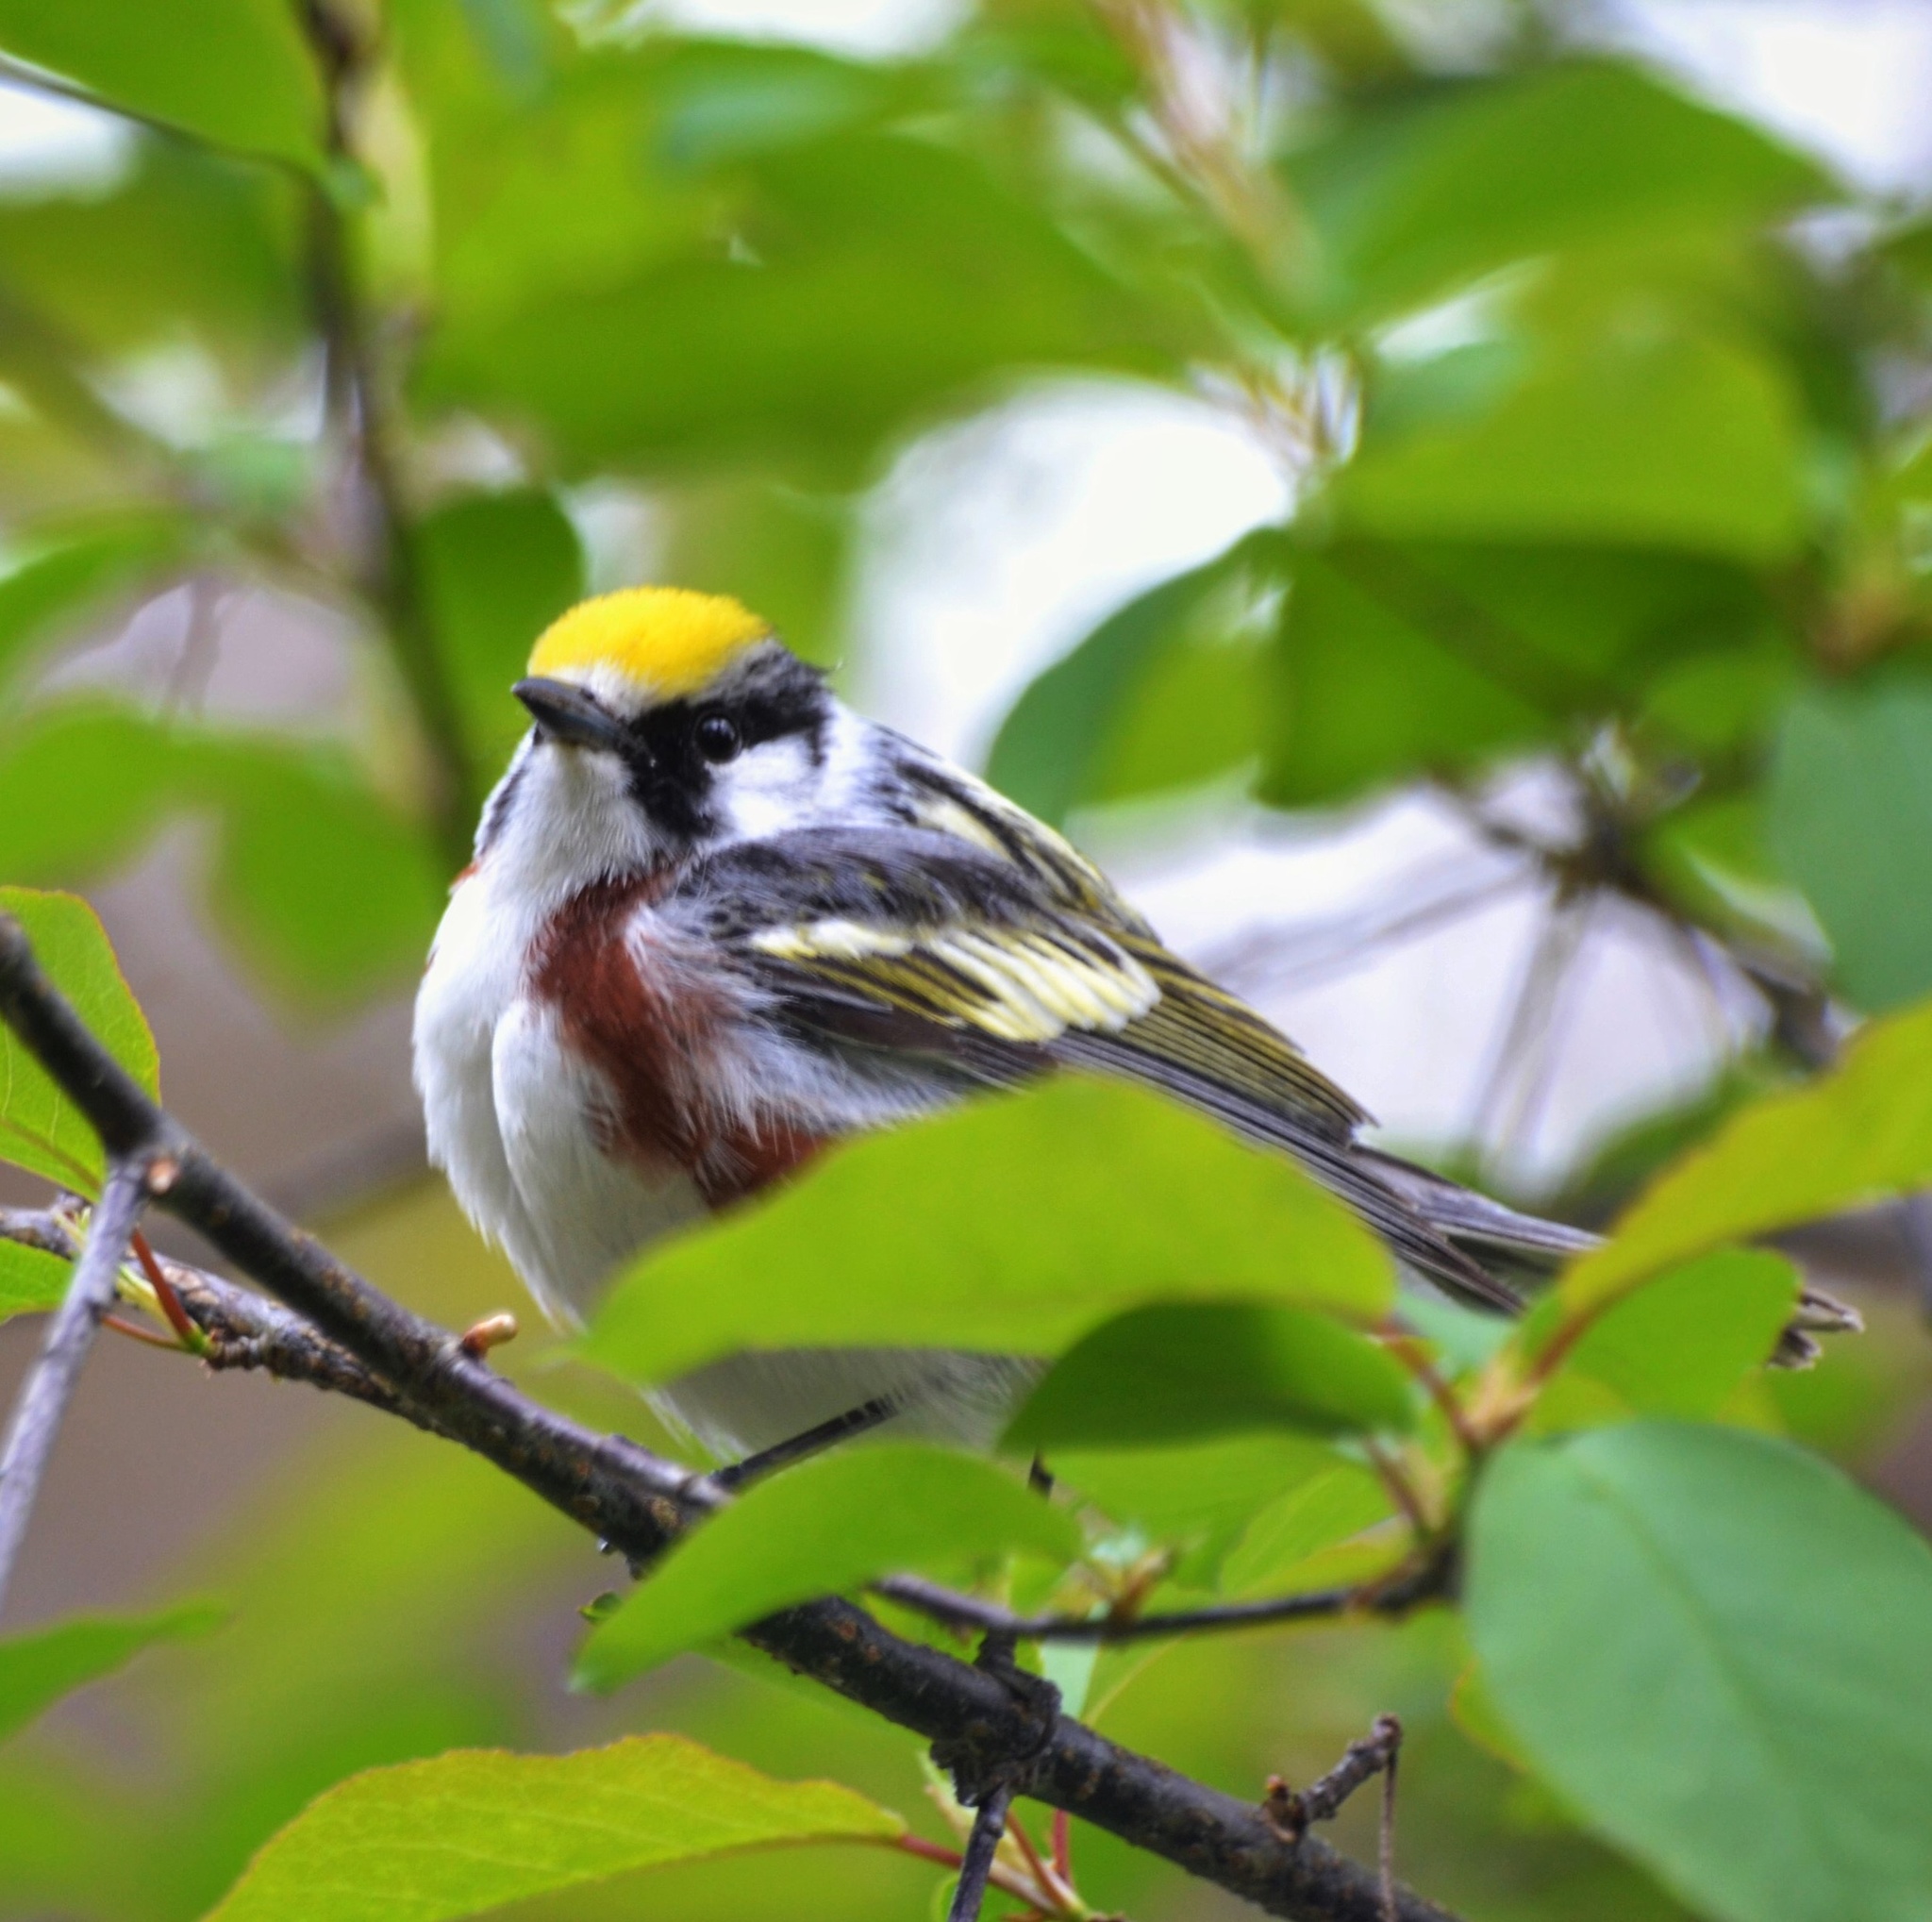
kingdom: Animalia
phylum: Chordata
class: Aves
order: Passeriformes
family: Parulidae
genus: Setophaga
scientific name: Setophaga pensylvanica
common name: Chestnut-sided warbler
